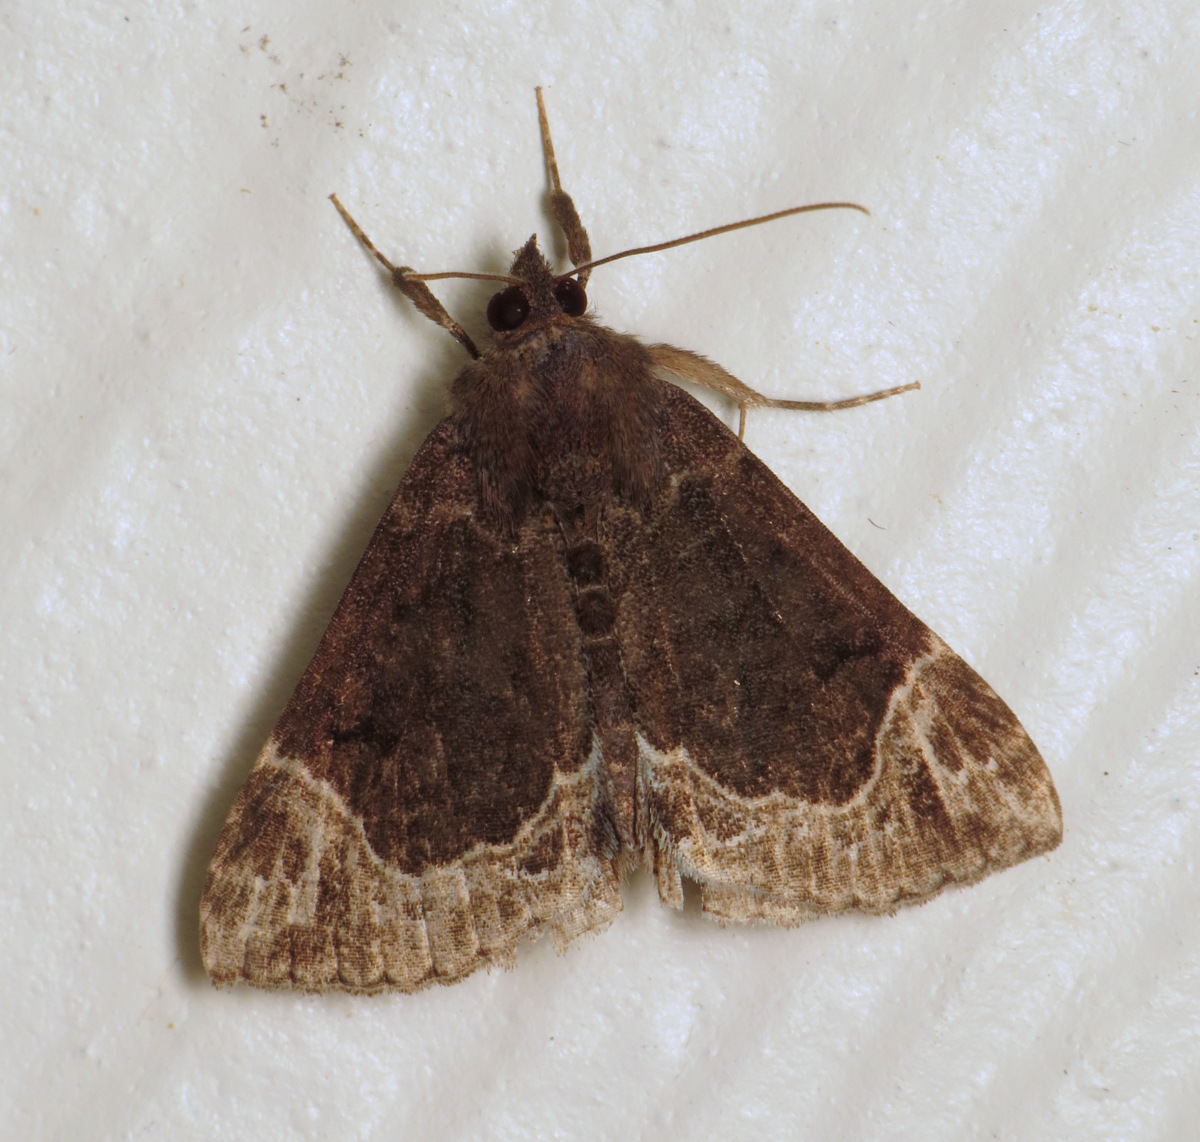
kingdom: Animalia
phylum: Arthropoda
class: Insecta
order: Lepidoptera
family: Erebidae
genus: Hypena
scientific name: Hypena abalienalis
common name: White-lined snout
